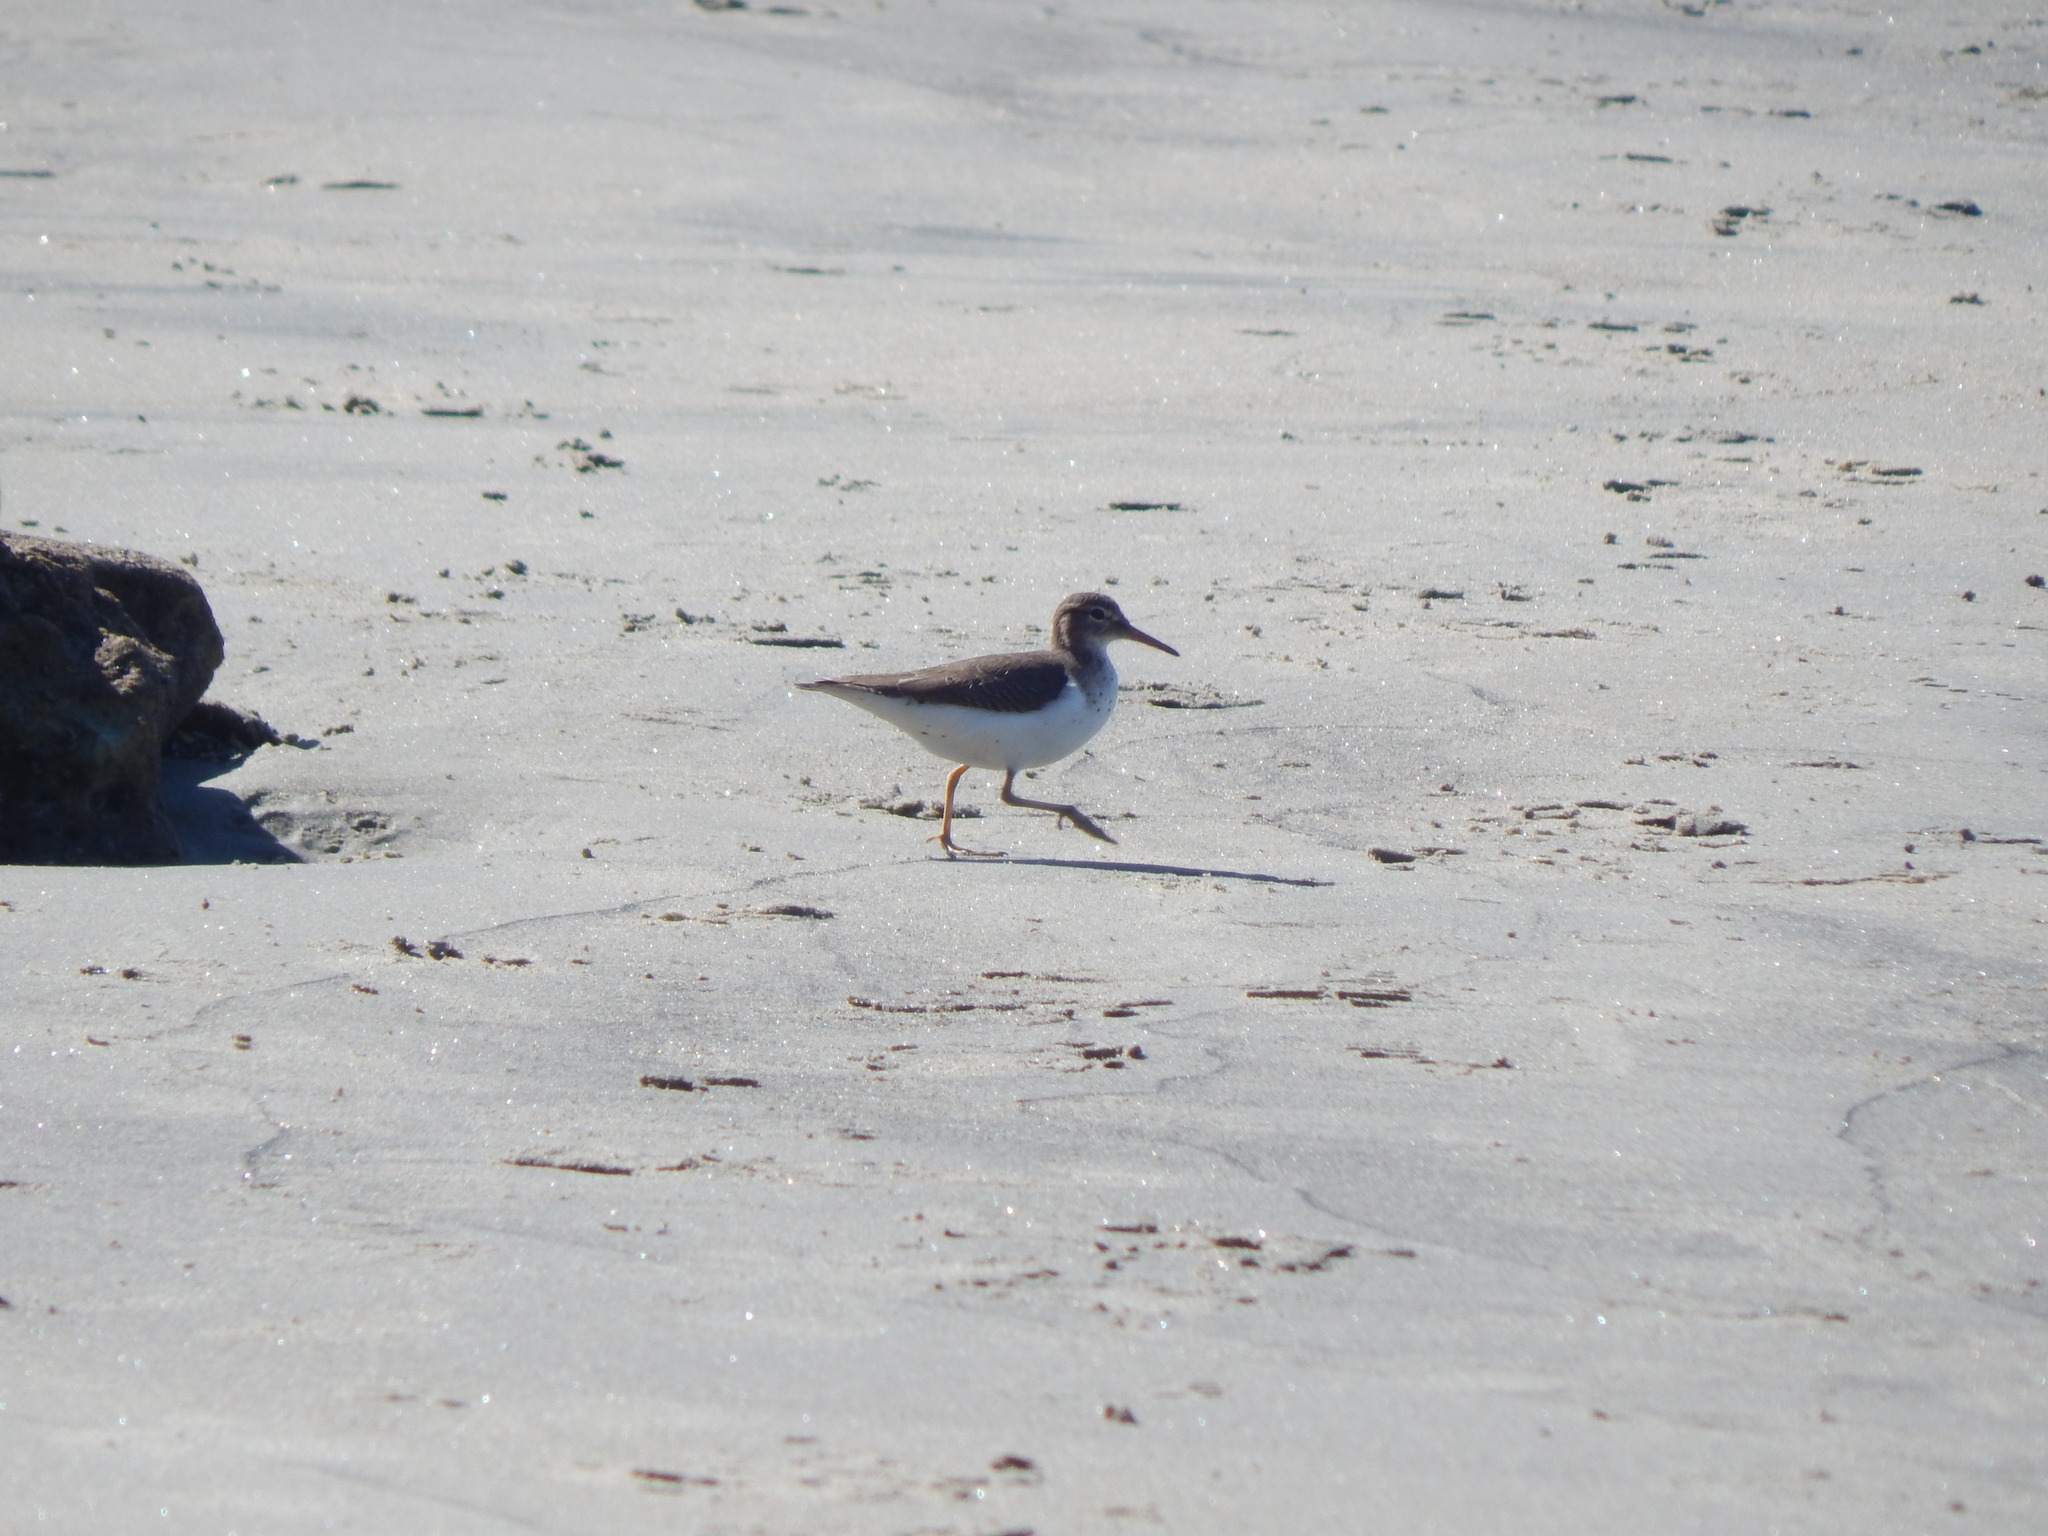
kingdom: Animalia
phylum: Chordata
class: Aves
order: Charadriiformes
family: Scolopacidae
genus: Actitis
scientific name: Actitis macularius
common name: Spotted sandpiper
